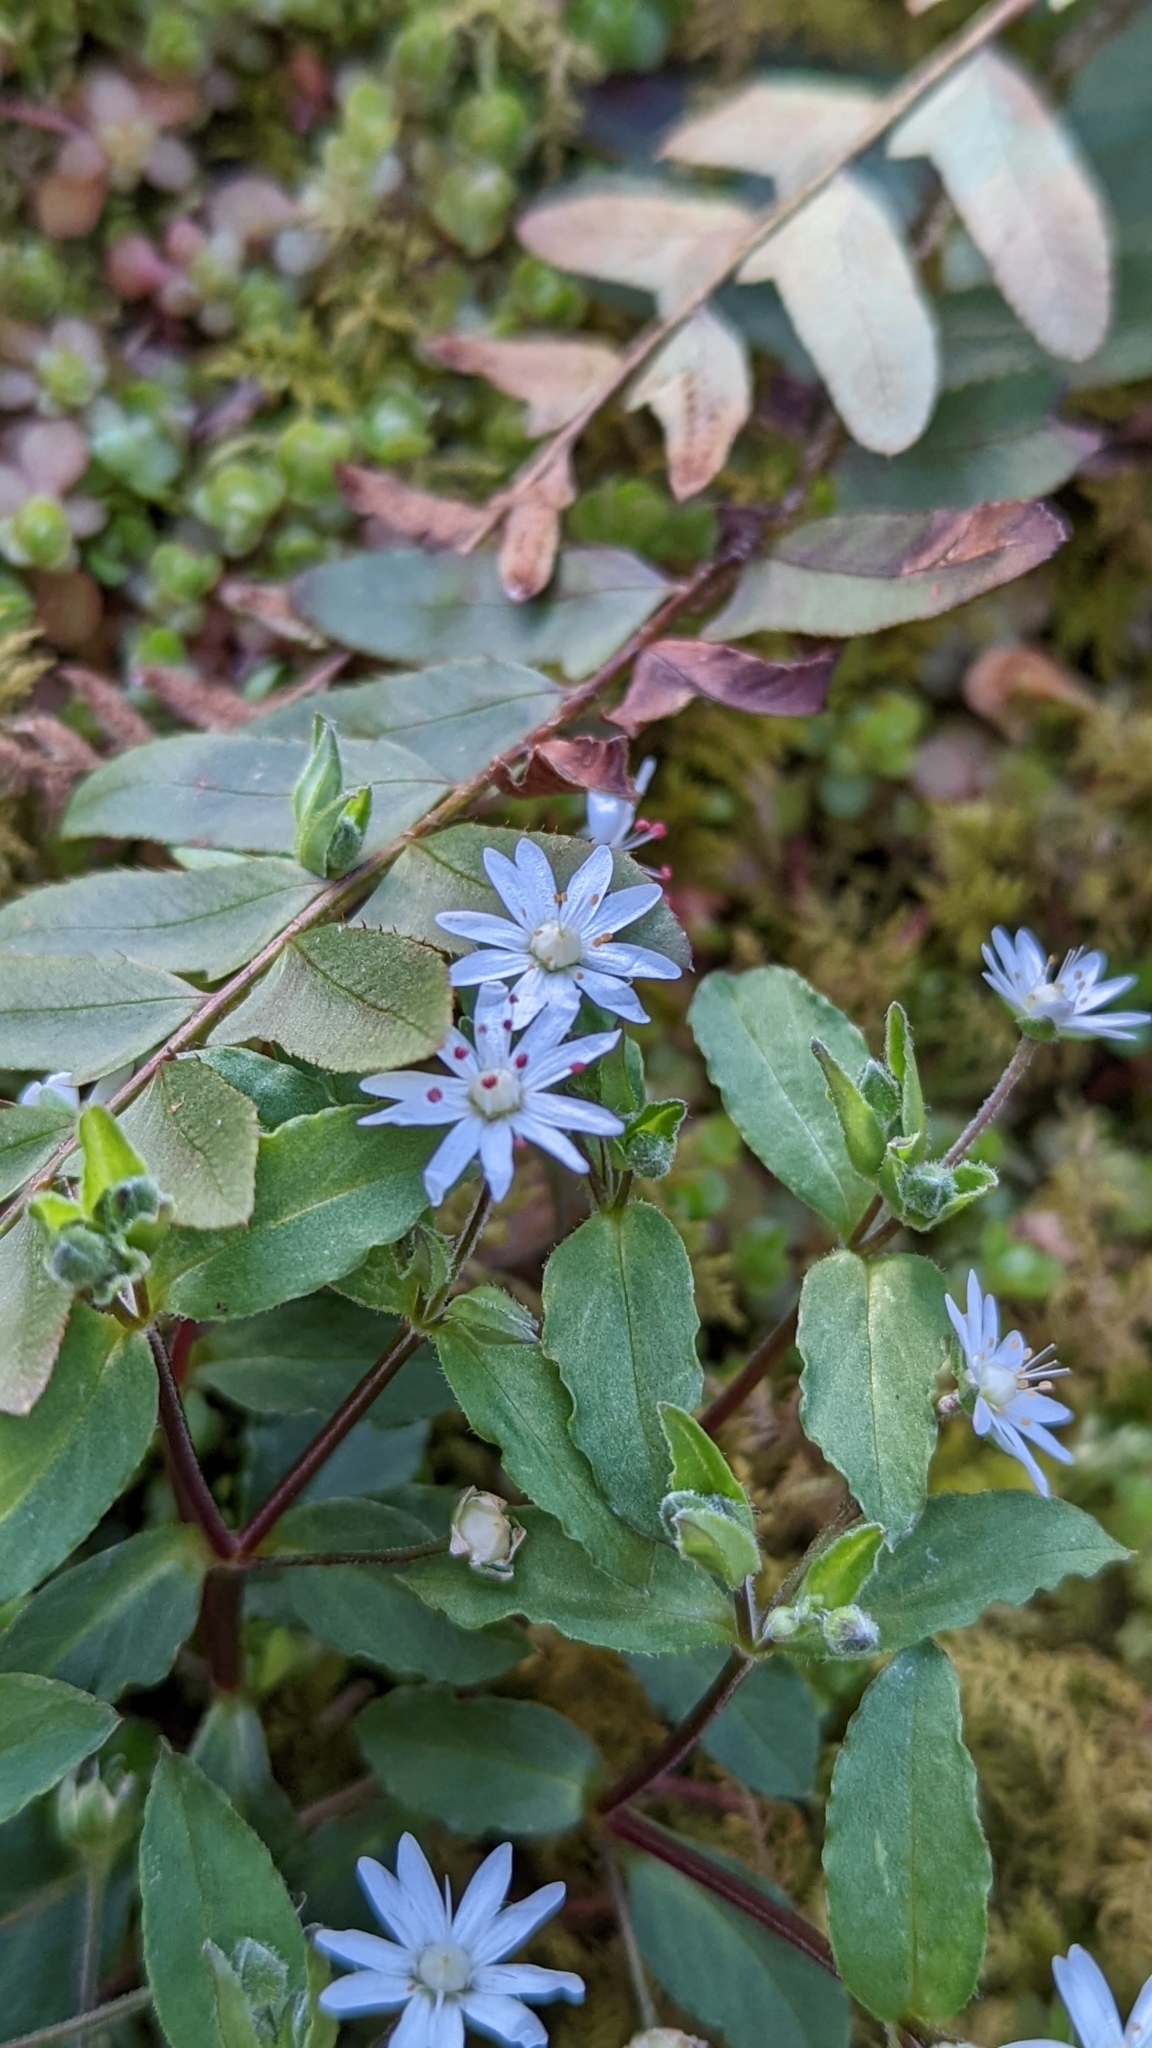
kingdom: Plantae
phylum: Tracheophyta
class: Magnoliopsida
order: Caryophyllales
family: Caryophyllaceae
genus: Stellaria
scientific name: Stellaria pubera
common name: Star chickweed
